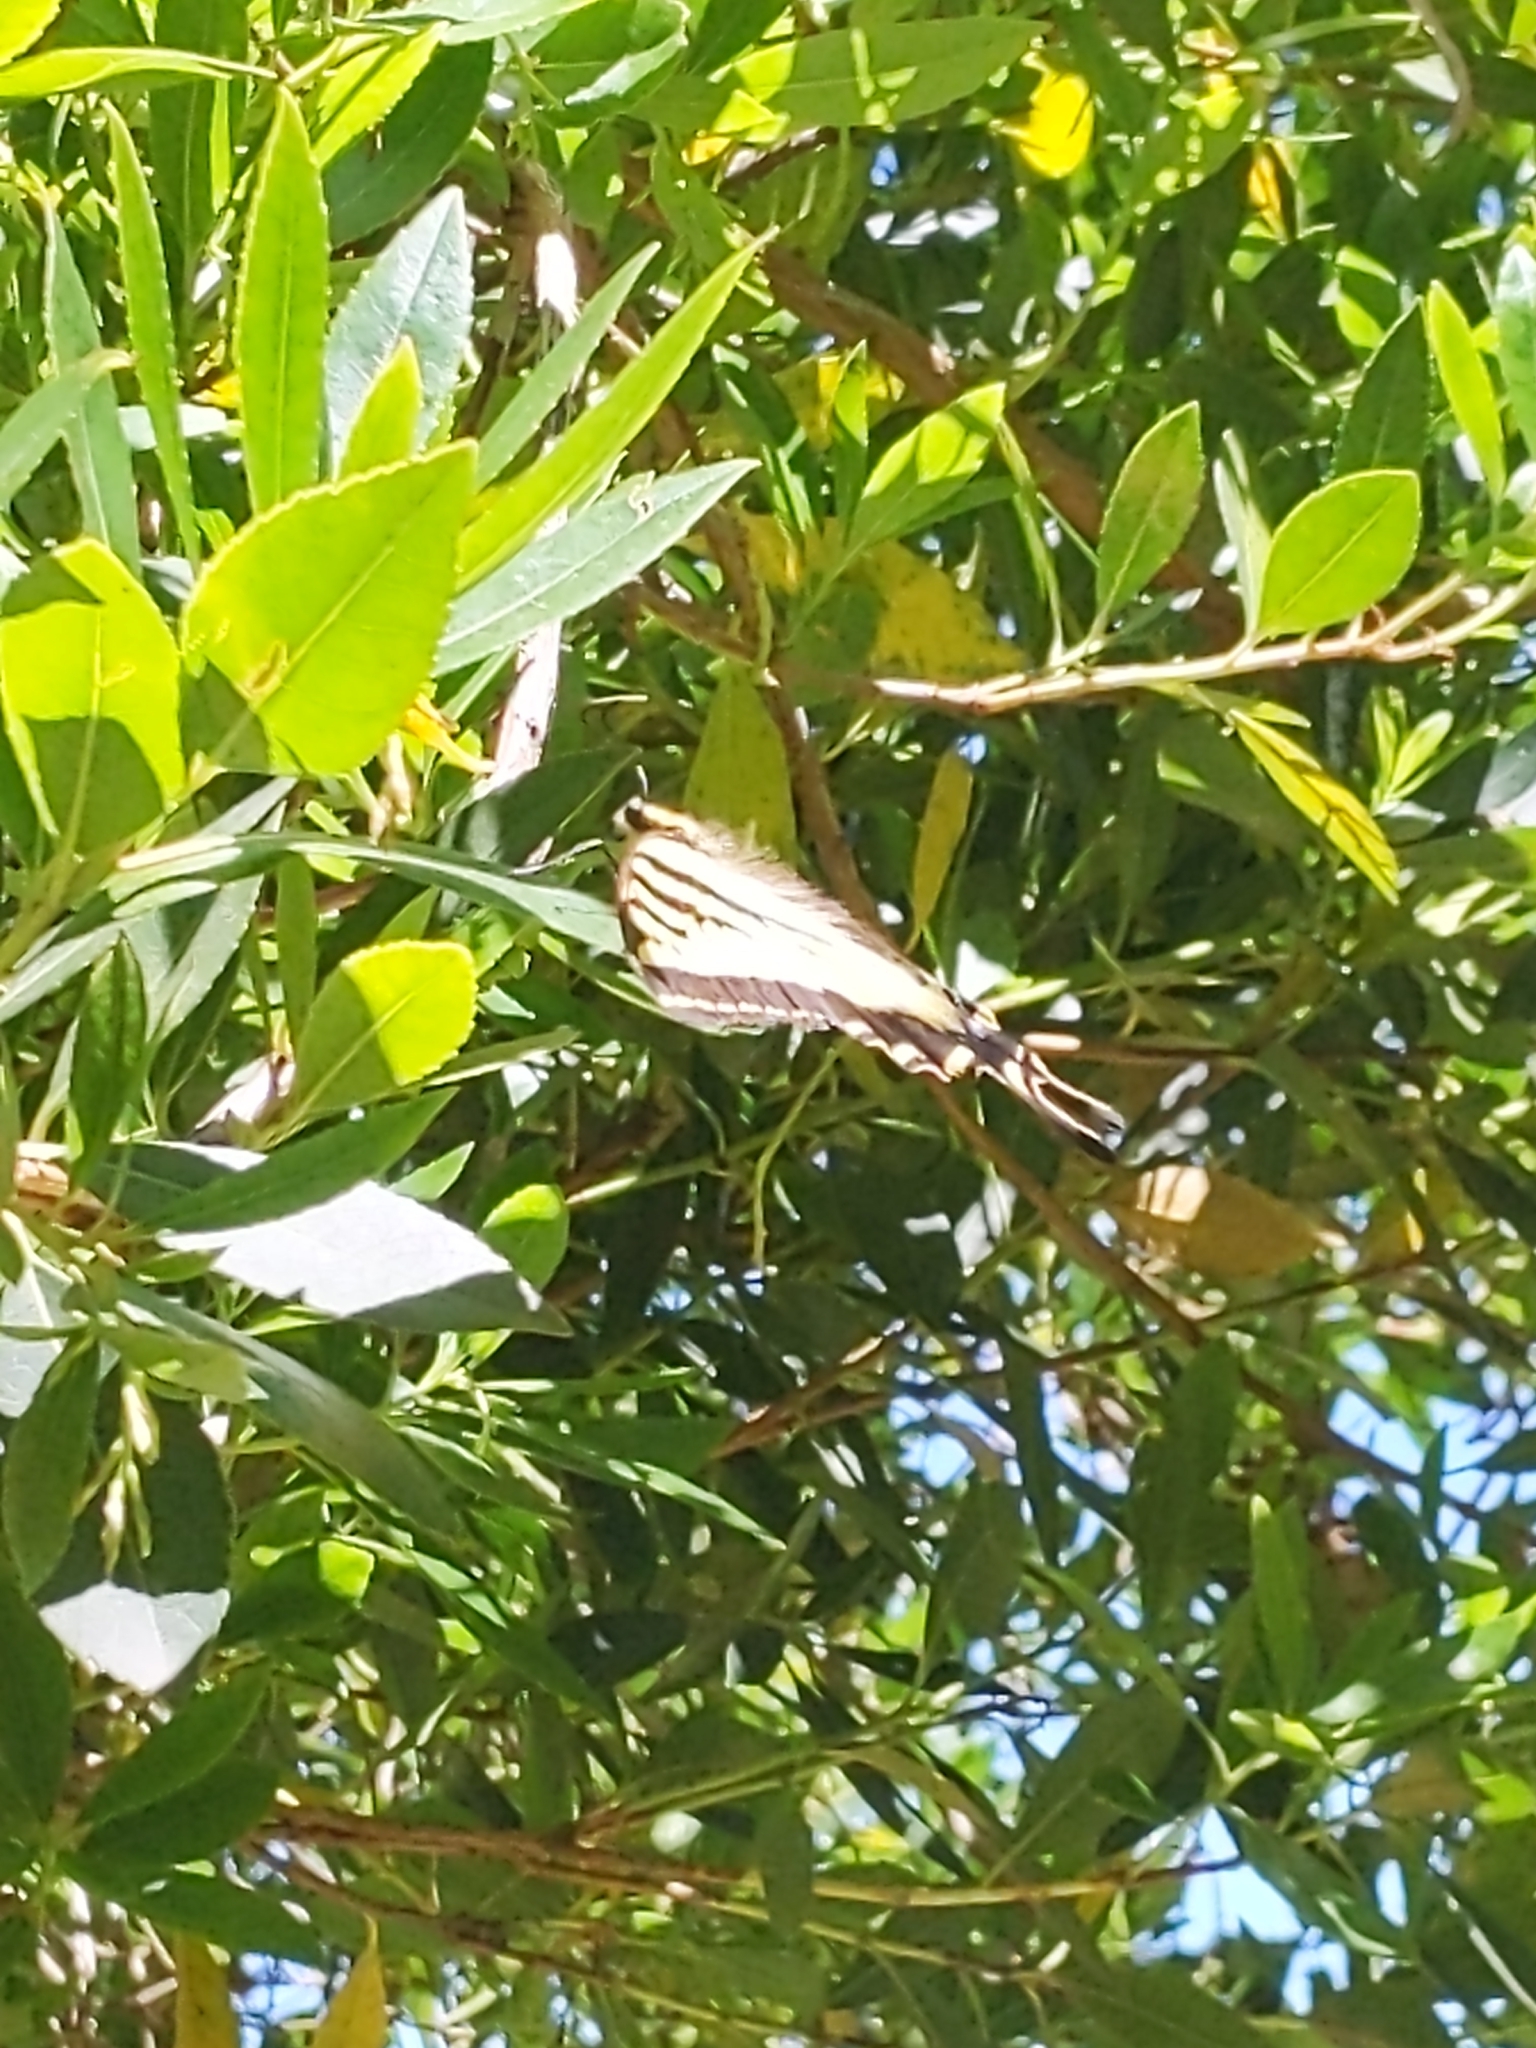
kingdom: Animalia
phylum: Arthropoda
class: Insecta
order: Lepidoptera
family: Papilionidae
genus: Papilio
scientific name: Papilio rutulus
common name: Western tiger swallowtail
